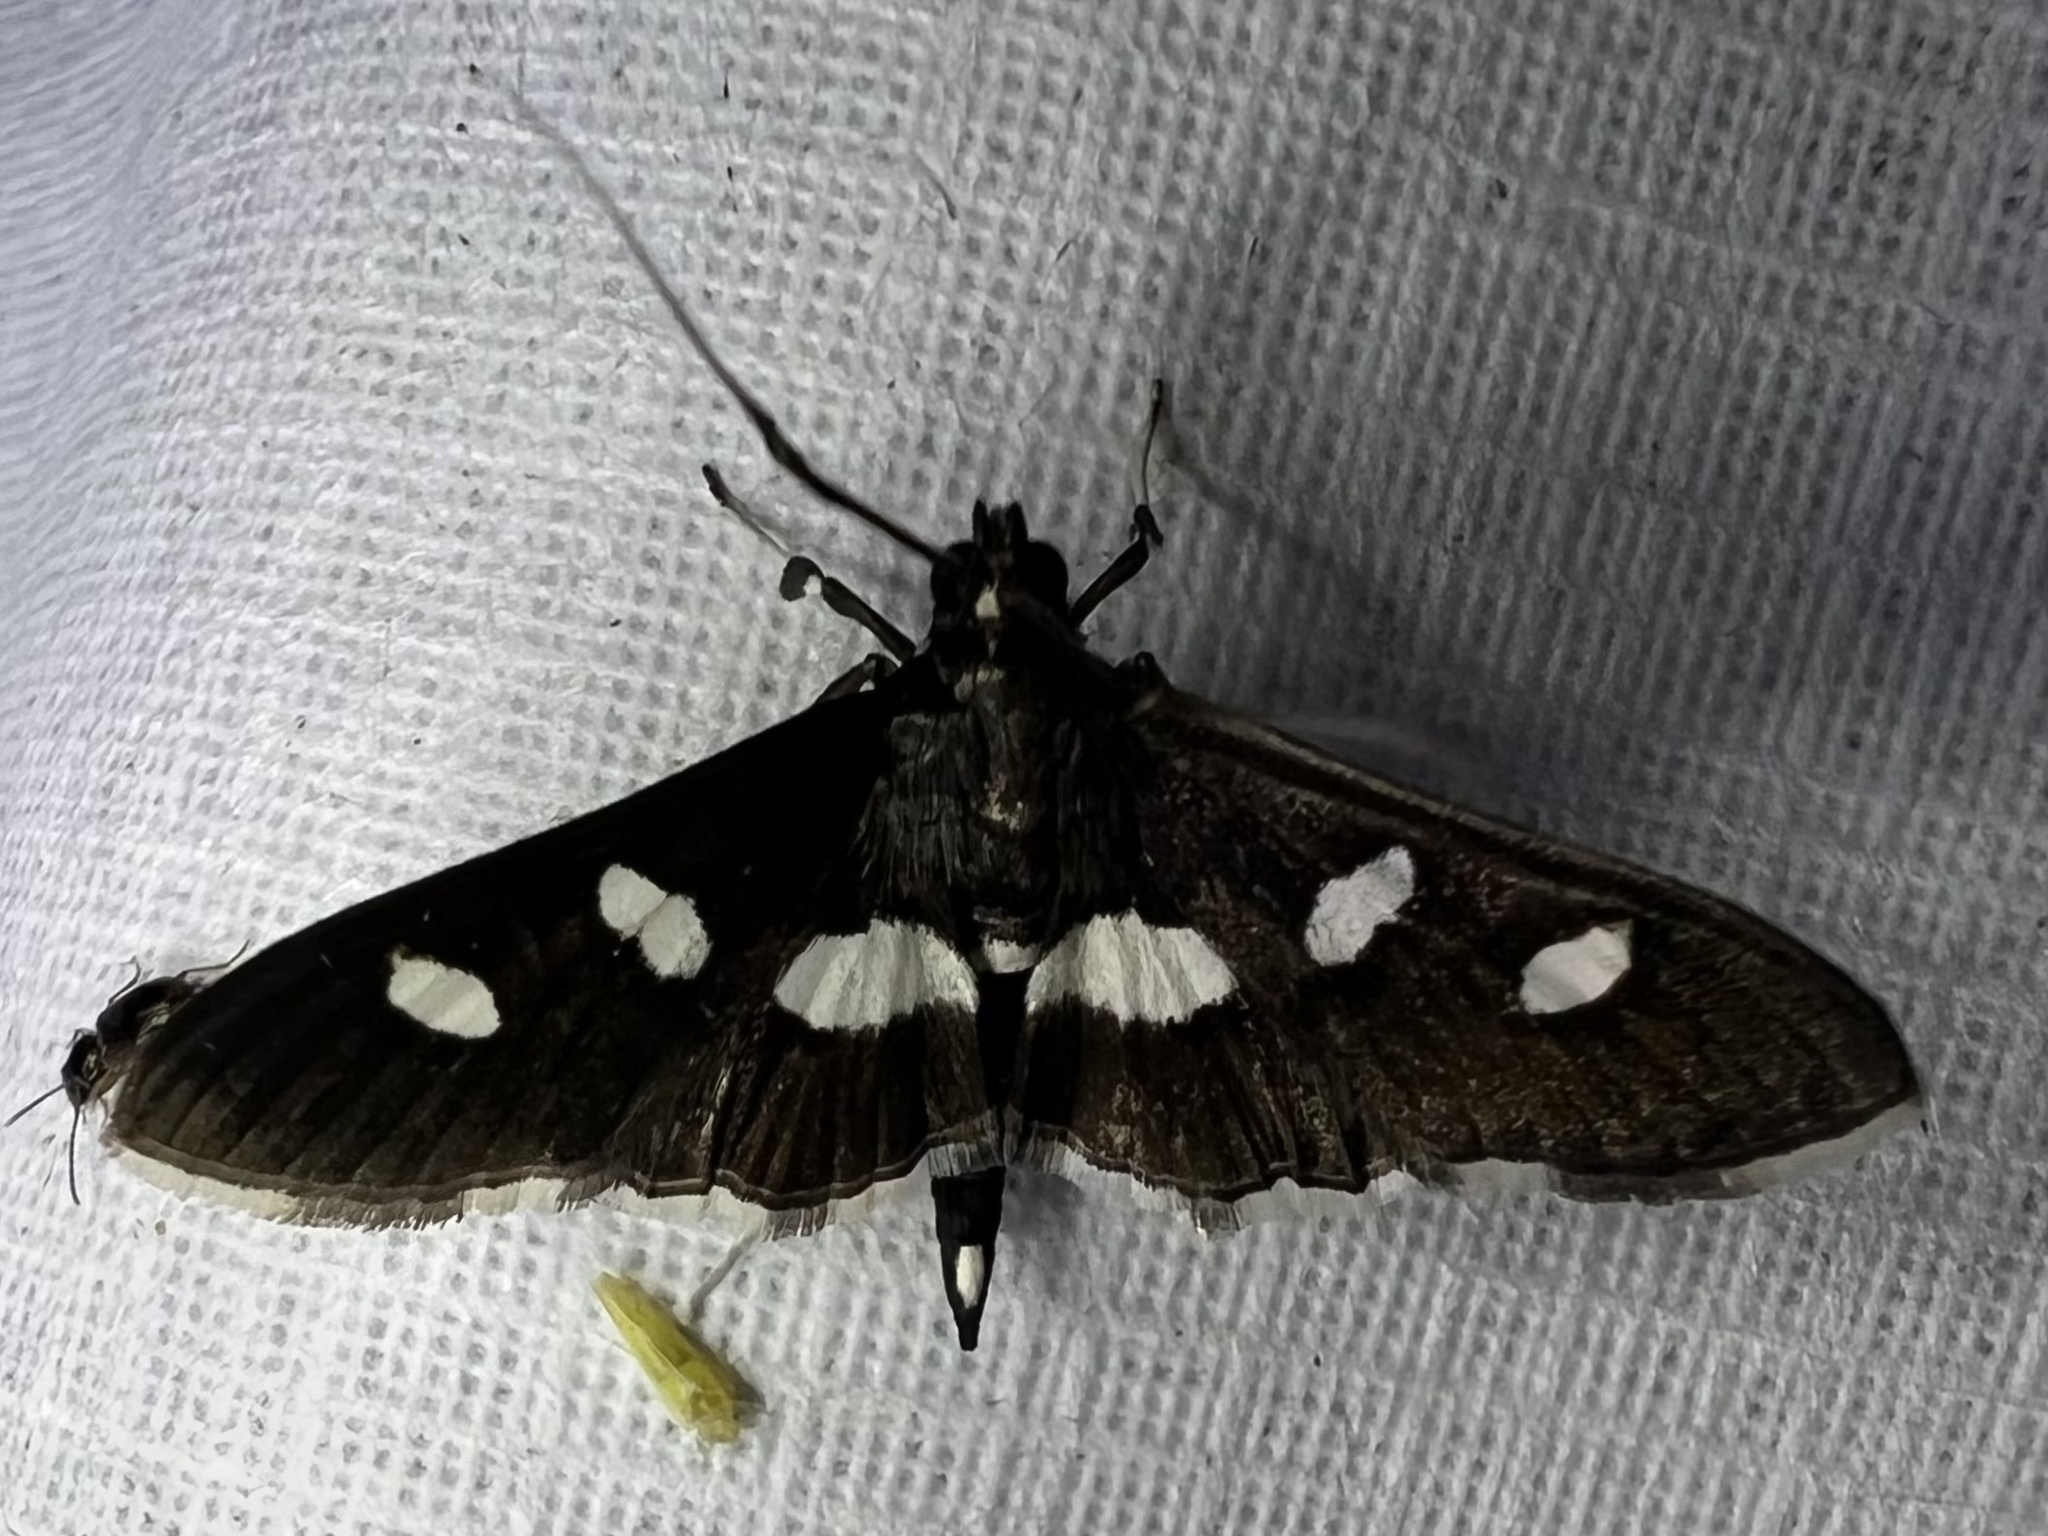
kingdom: Animalia
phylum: Arthropoda
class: Insecta
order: Lepidoptera
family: Crambidae
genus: Desmia
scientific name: Desmia
